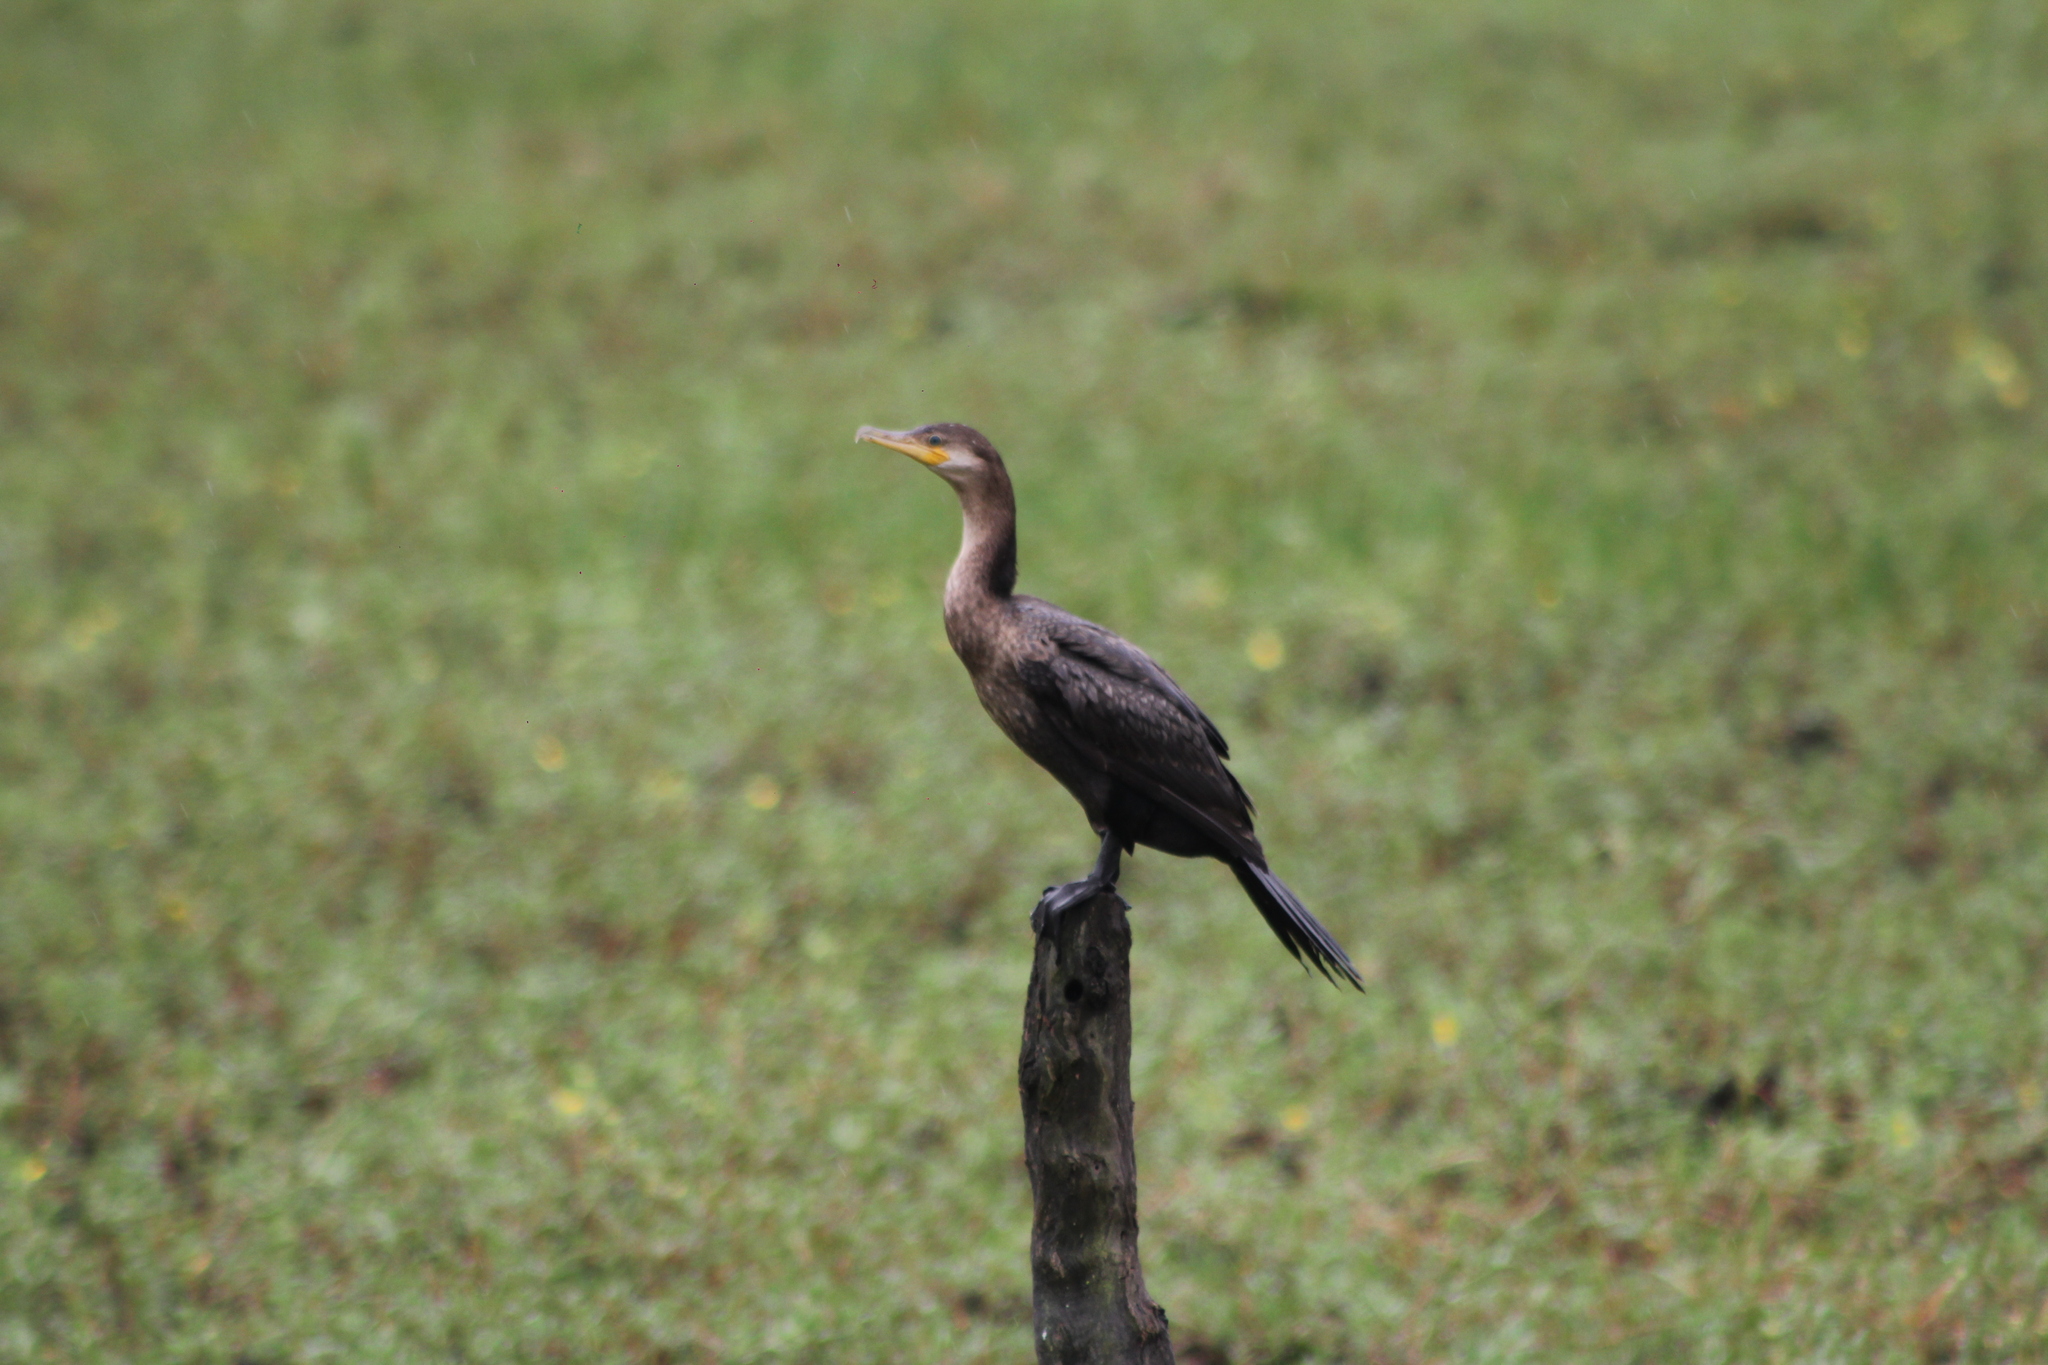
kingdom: Animalia
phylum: Chordata
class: Aves
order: Suliformes
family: Phalacrocoracidae
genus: Phalacrocorax
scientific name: Phalacrocorax brasilianus
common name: Neotropic cormorant
